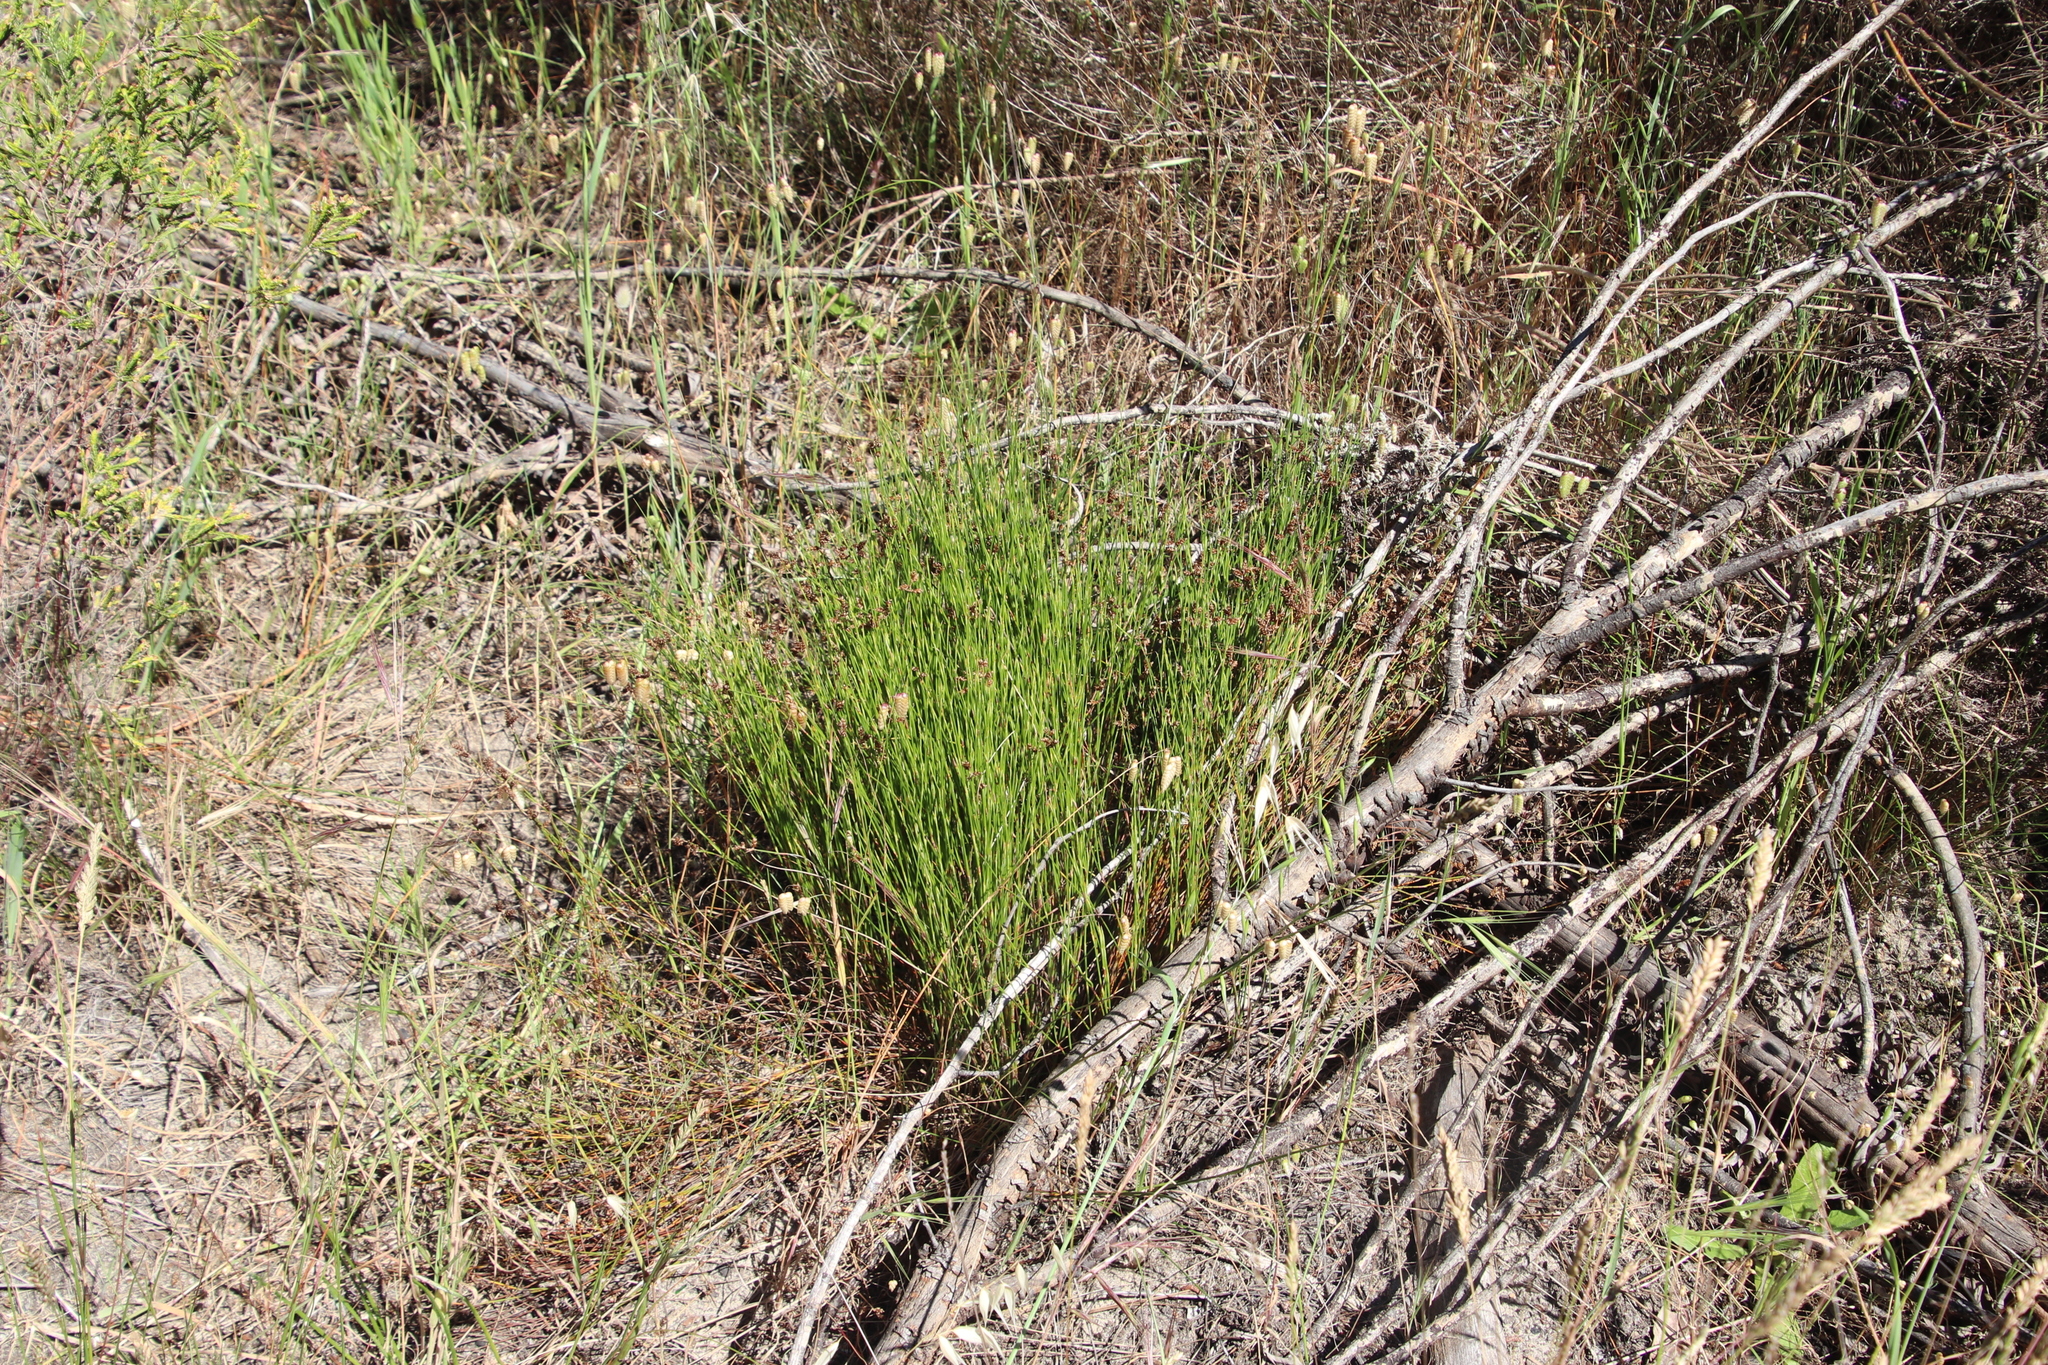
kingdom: Plantae
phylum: Tracheophyta
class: Liliopsida
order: Poales
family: Restionaceae
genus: Mastersiella
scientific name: Mastersiella digitata
